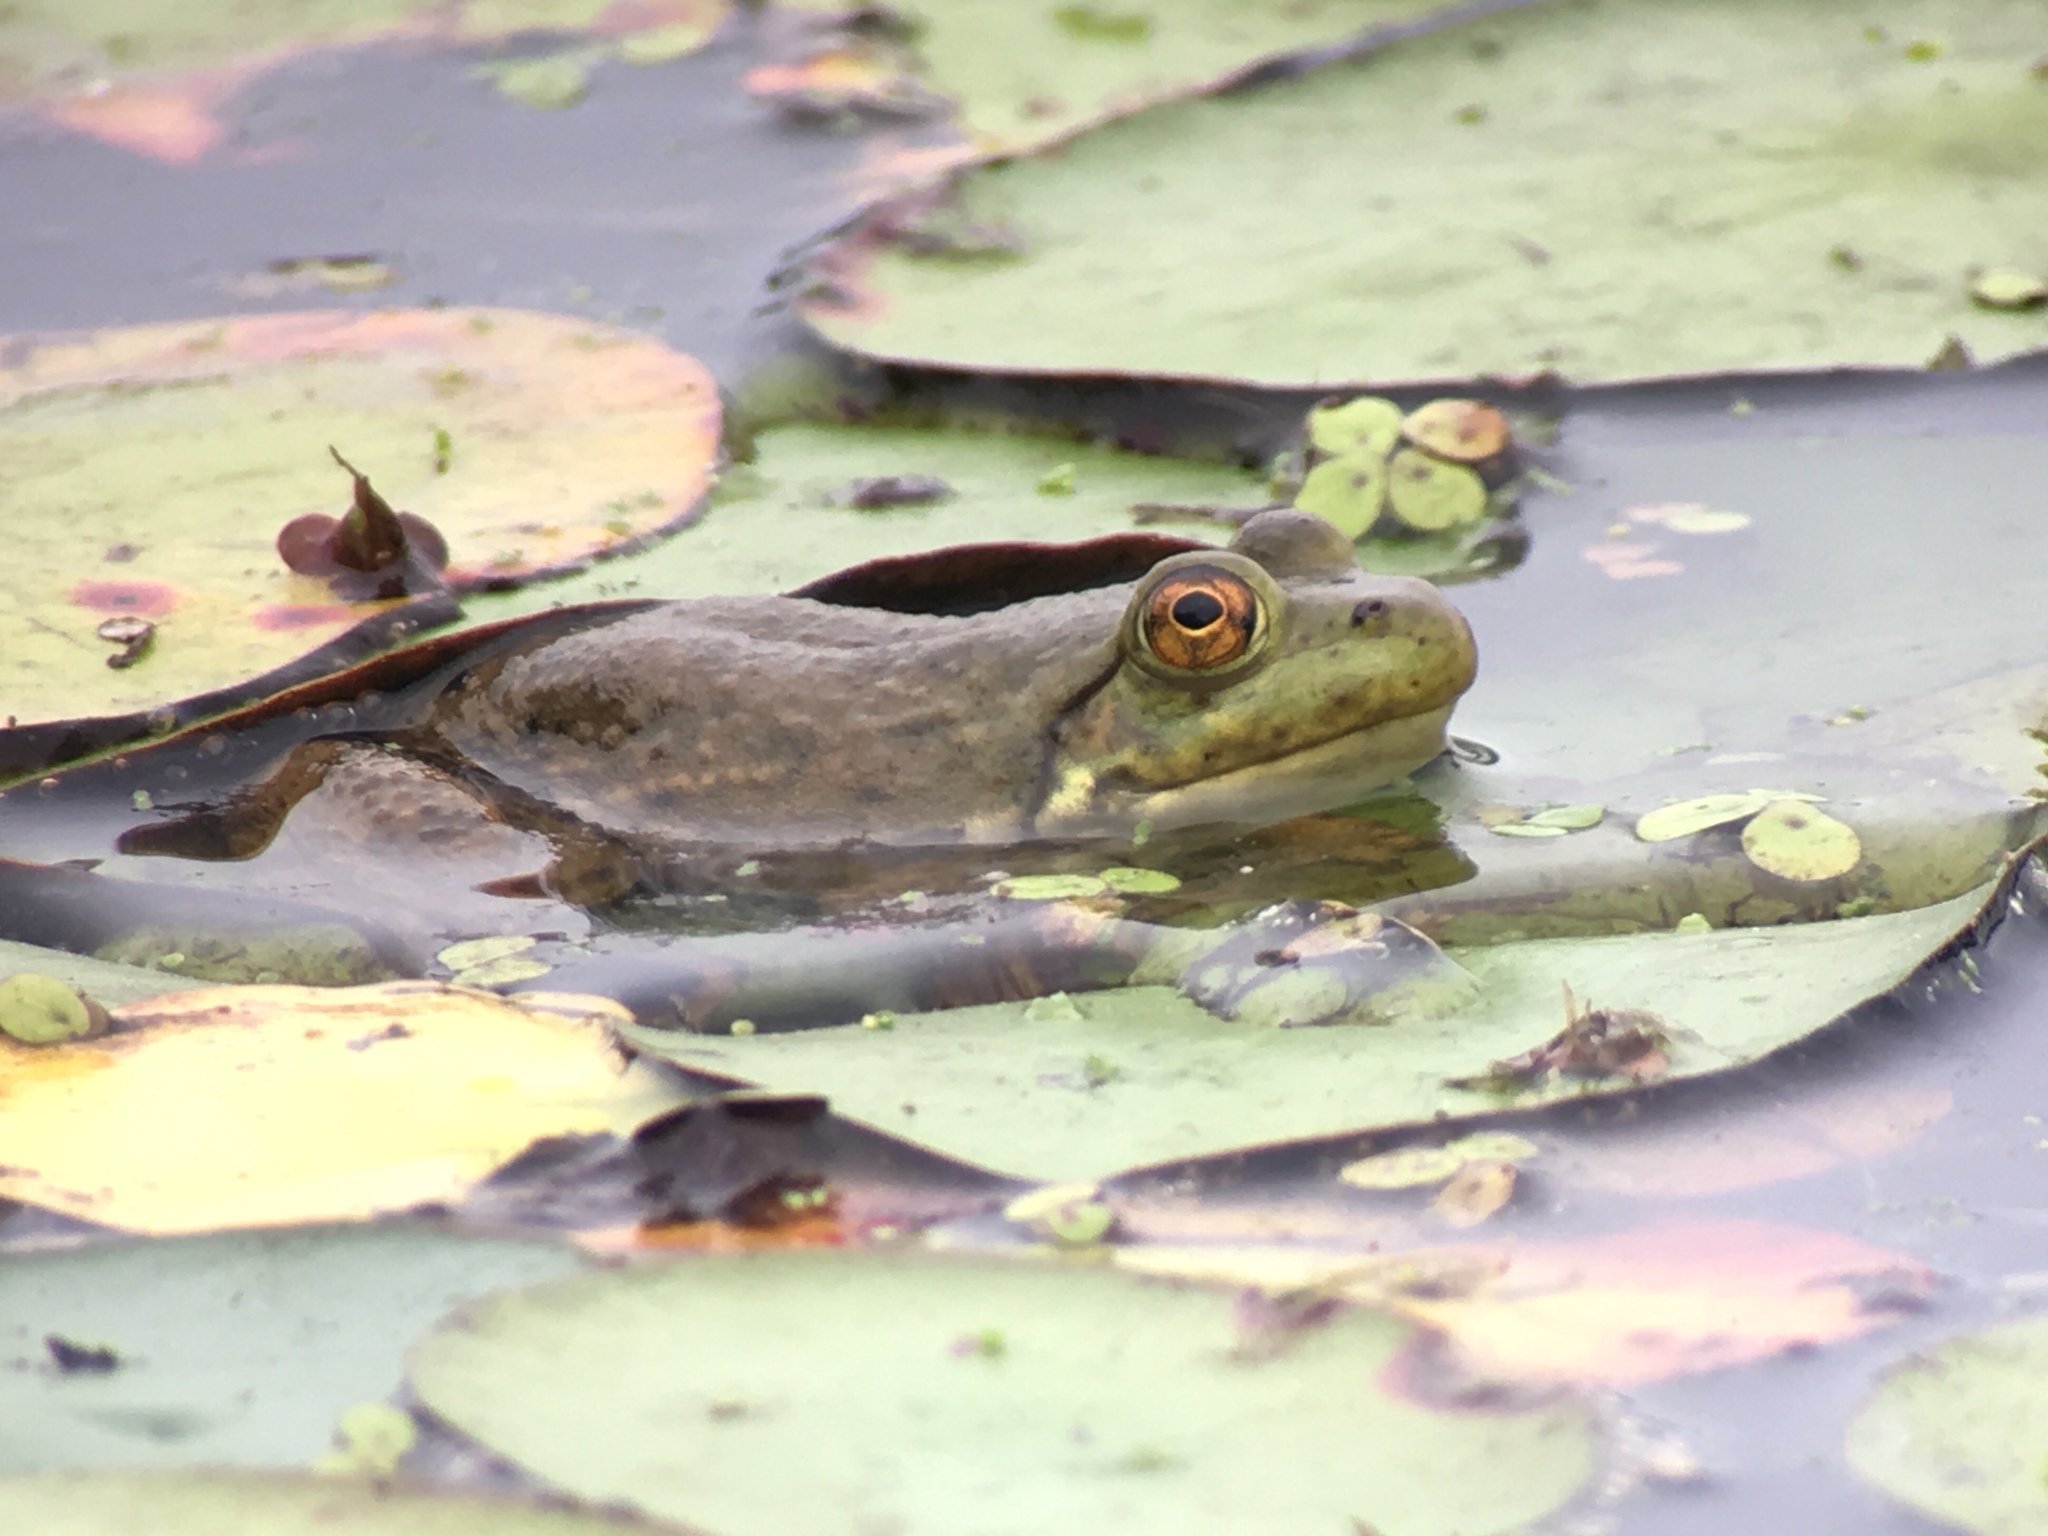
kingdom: Animalia
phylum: Chordata
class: Amphibia
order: Anura
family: Ranidae
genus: Lithobates
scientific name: Lithobates catesbeianus
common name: American bullfrog
